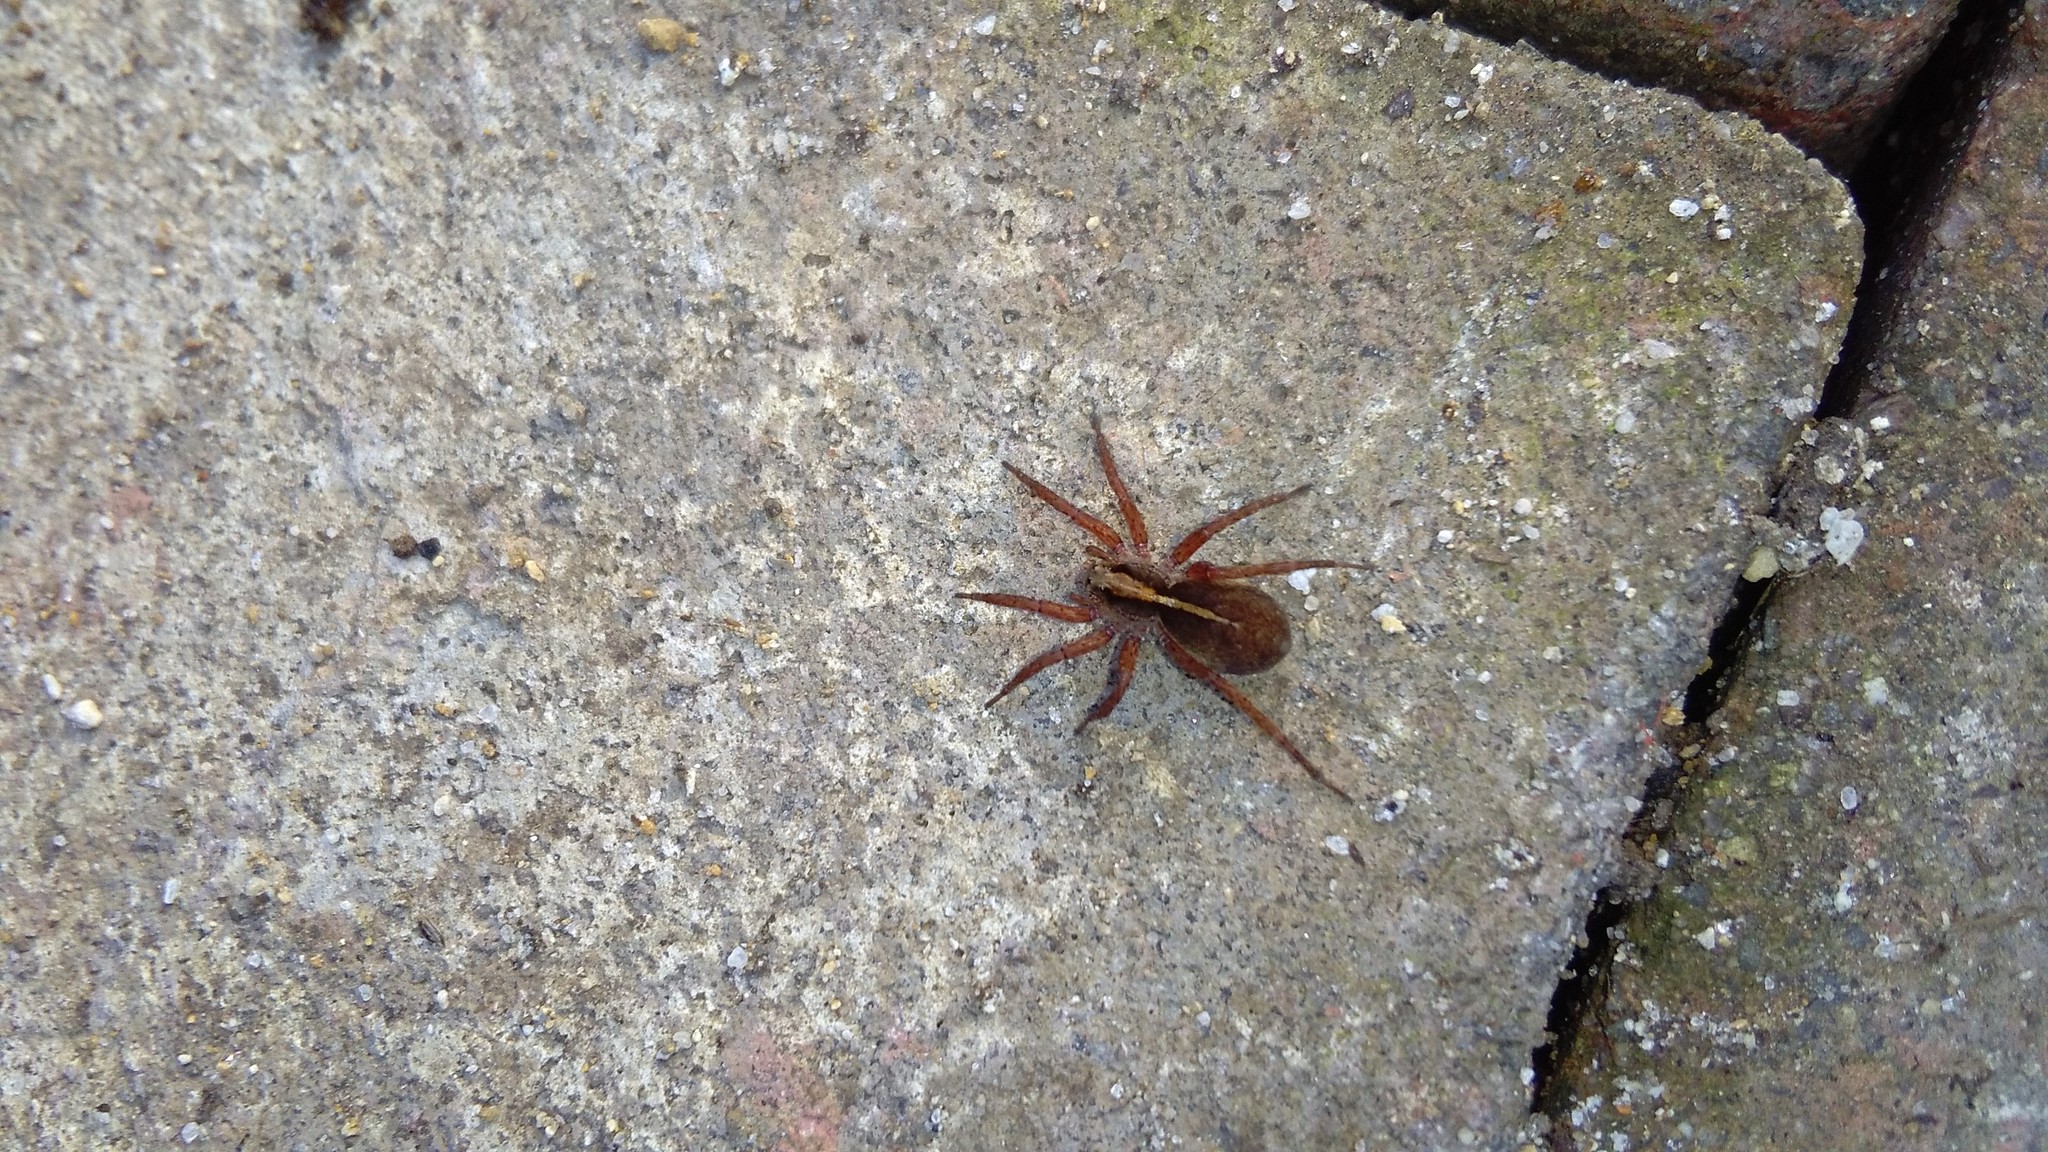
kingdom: Animalia
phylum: Arthropoda
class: Arachnida
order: Araneae
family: Lycosidae
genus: Anoteropsis
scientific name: Anoteropsis hilaris
